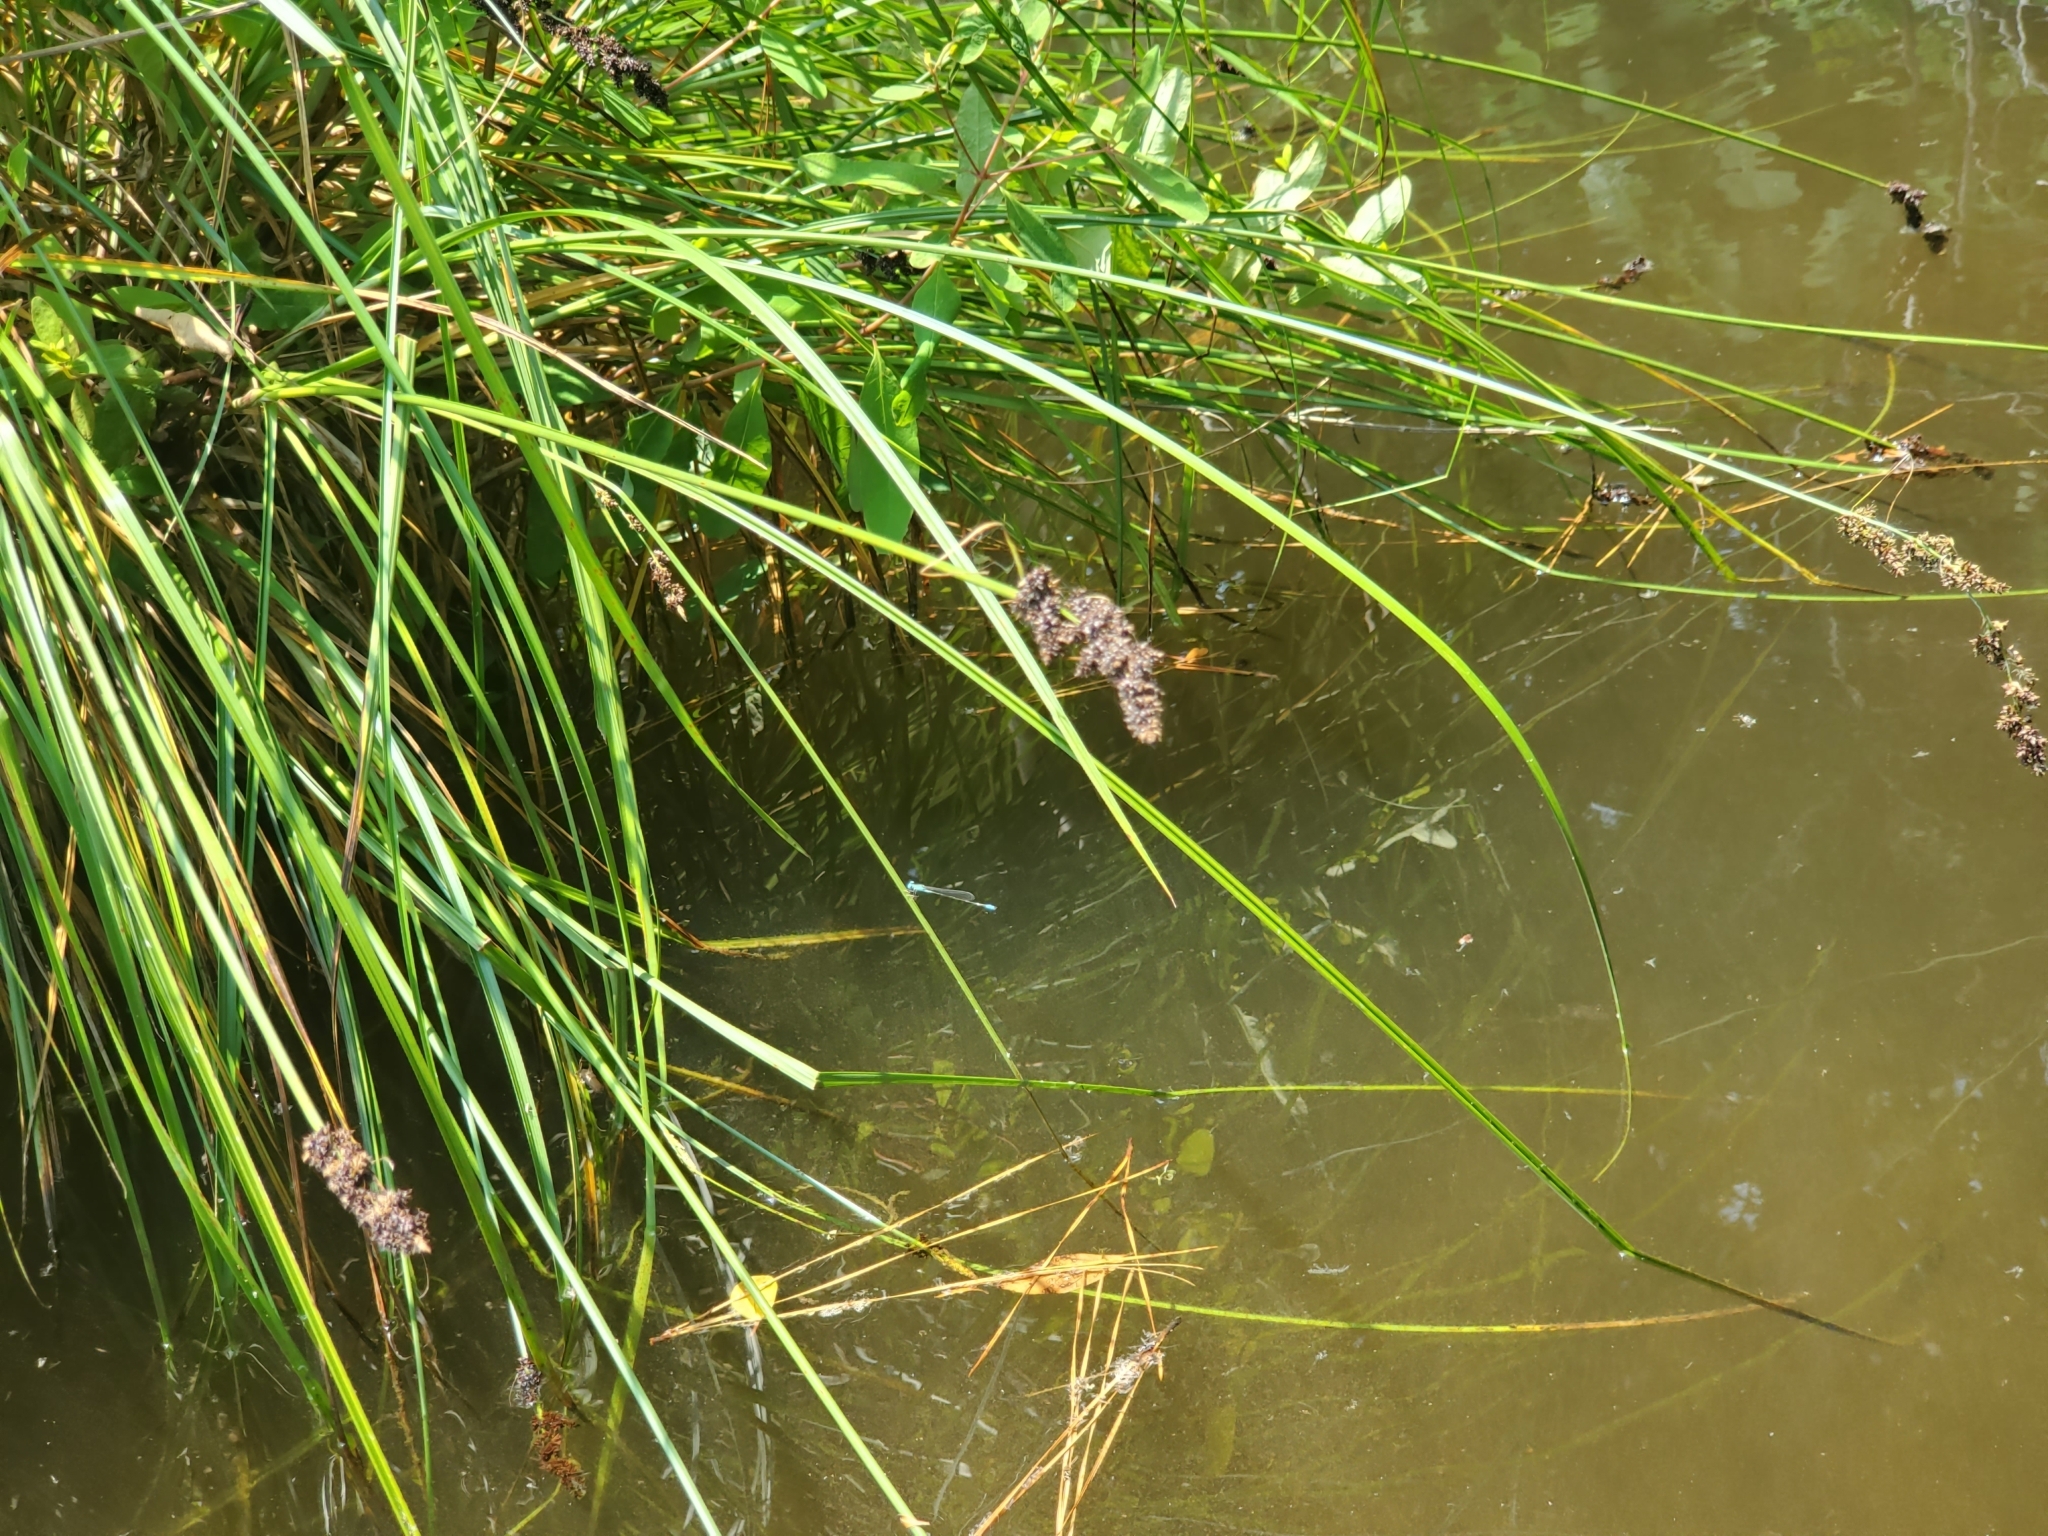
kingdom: Plantae
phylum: Tracheophyta
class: Liliopsida
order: Poales
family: Cyperaceae
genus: Carex
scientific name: Carex vulpinoidea
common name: American fox-sedge
